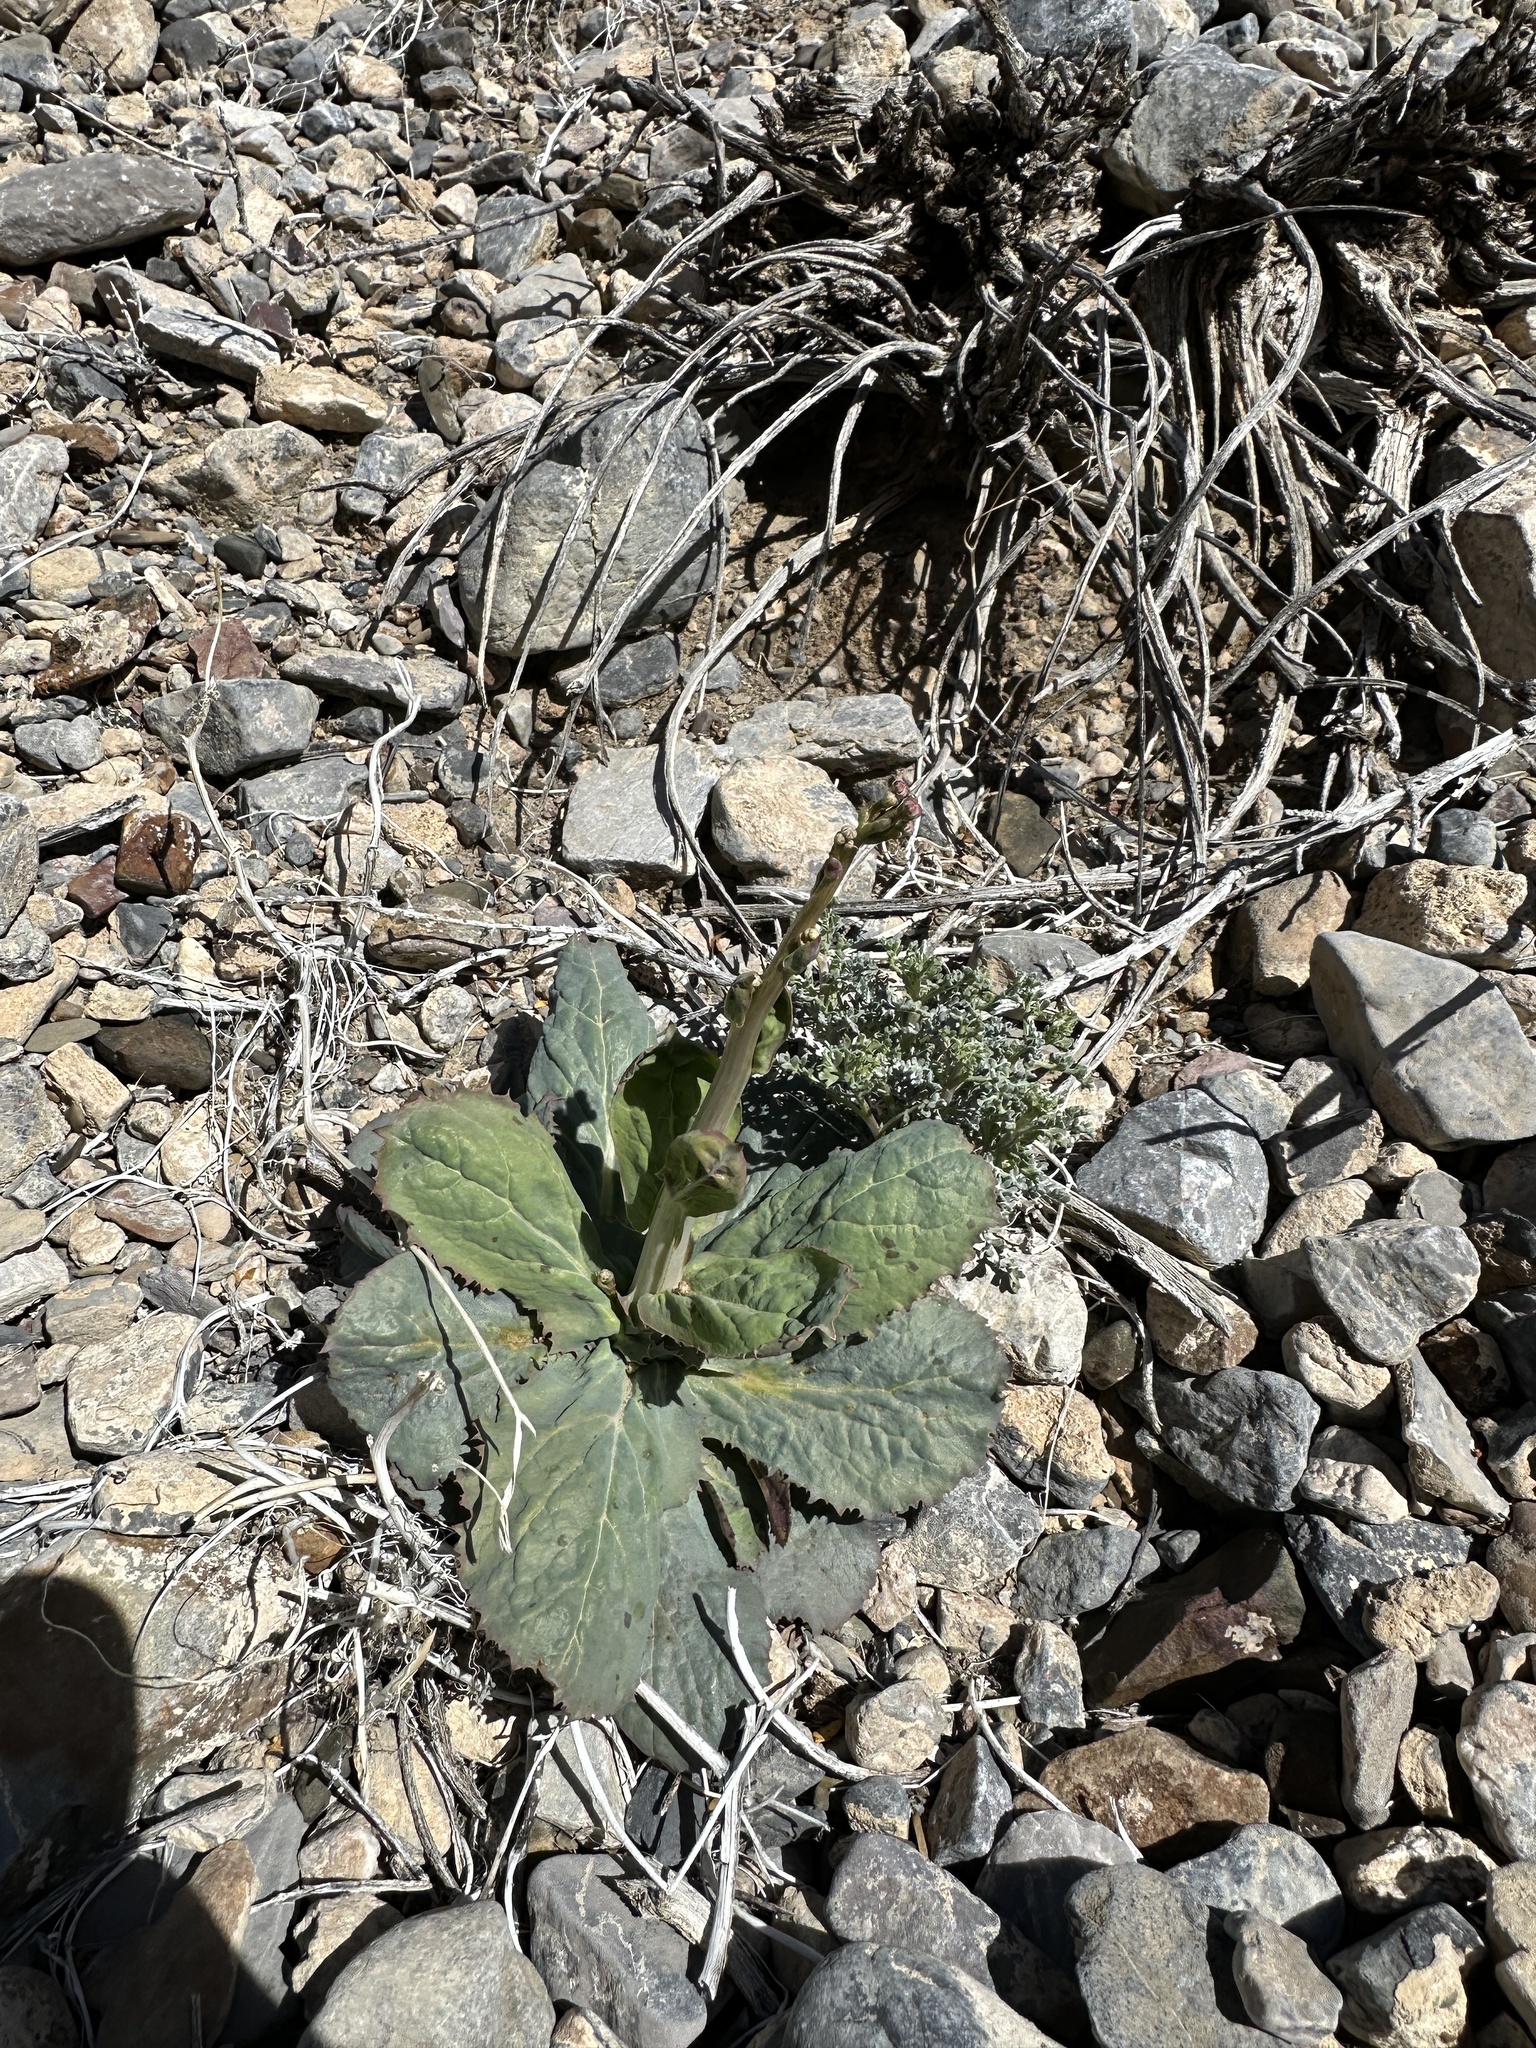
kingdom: Plantae
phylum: Tracheophyta
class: Magnoliopsida
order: Asterales
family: Asteraceae
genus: Atrichoseris
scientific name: Atrichoseris platyphylla
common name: Tobaccoweed
